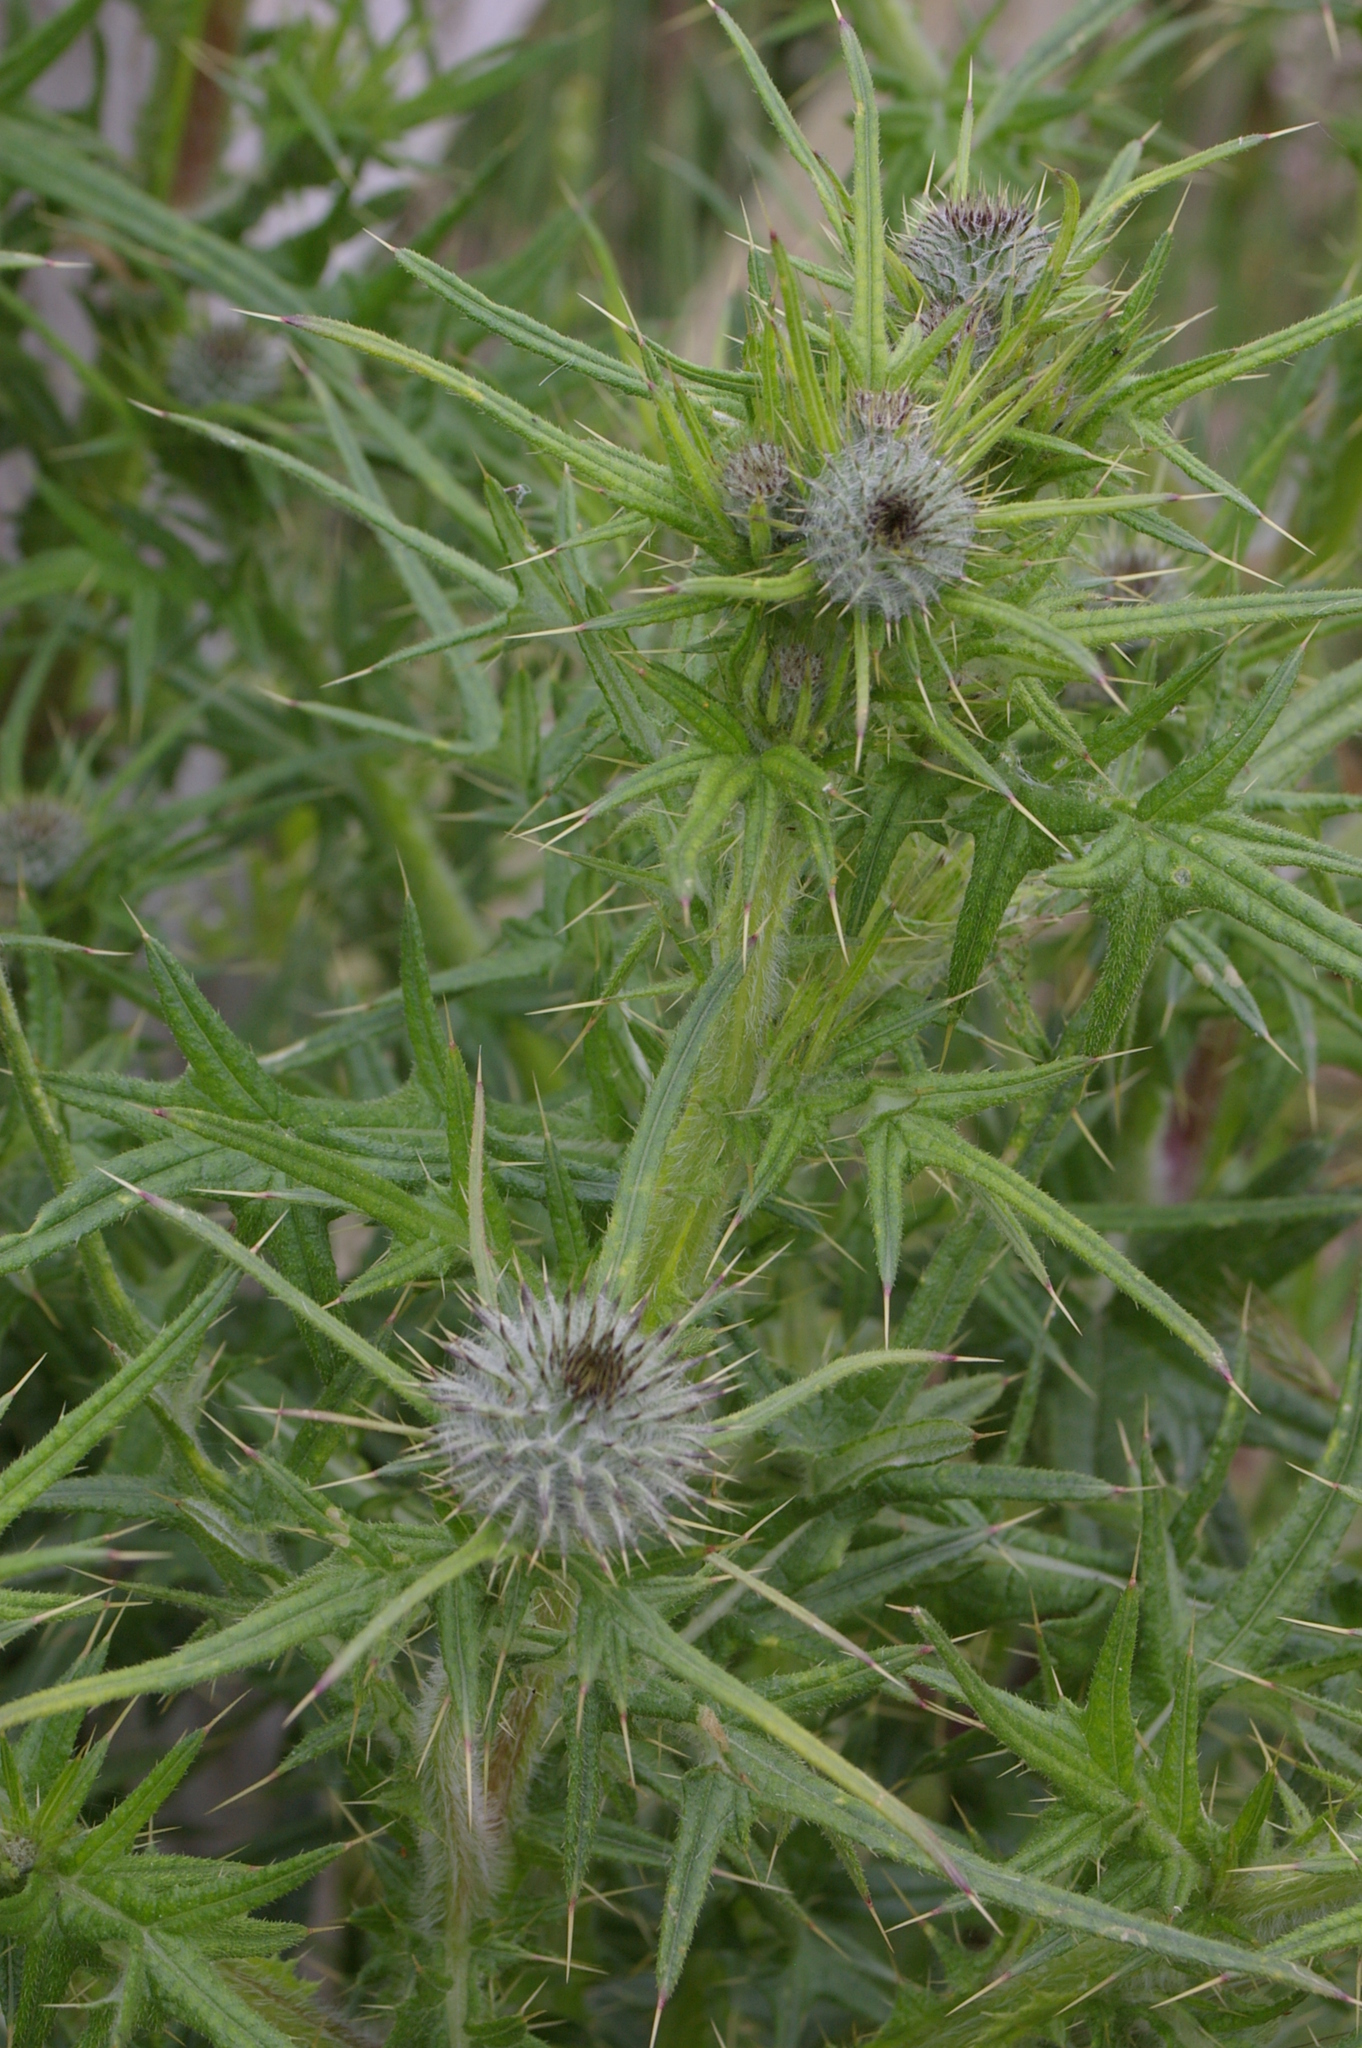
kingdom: Plantae
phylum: Tracheophyta
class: Magnoliopsida
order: Asterales
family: Asteraceae
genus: Cirsium
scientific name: Cirsium vulgare
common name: Bull thistle
